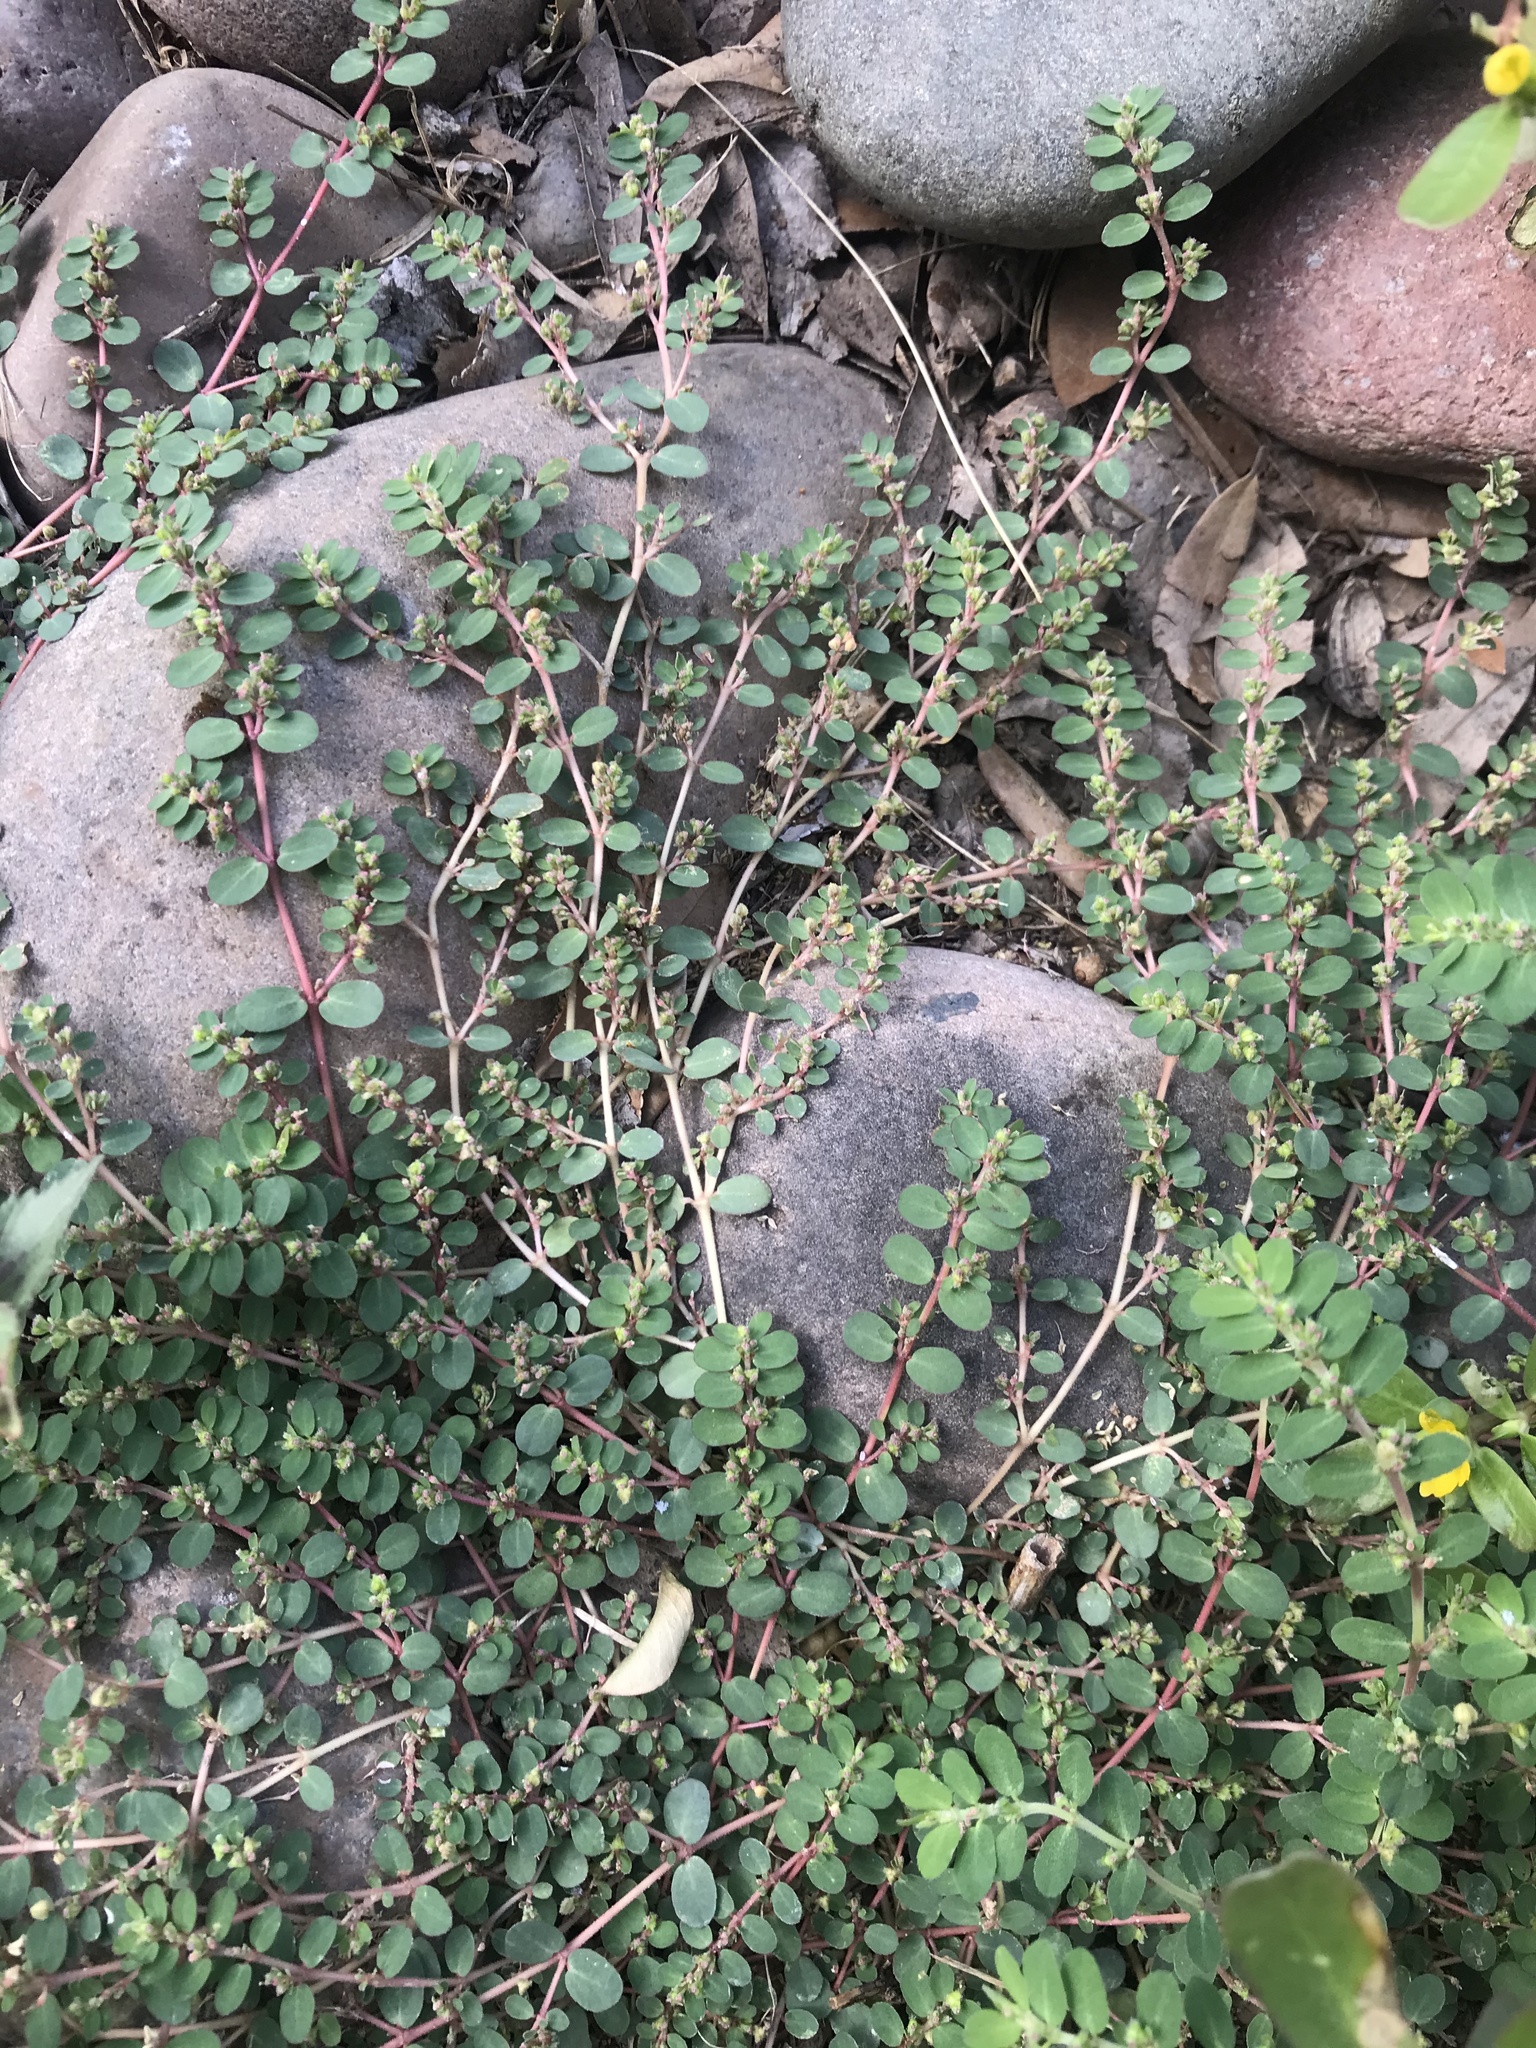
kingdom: Plantae
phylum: Tracheophyta
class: Magnoliopsida
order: Malpighiales
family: Euphorbiaceae
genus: Euphorbia
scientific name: Euphorbia prostrata
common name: Prostrate sandmat
